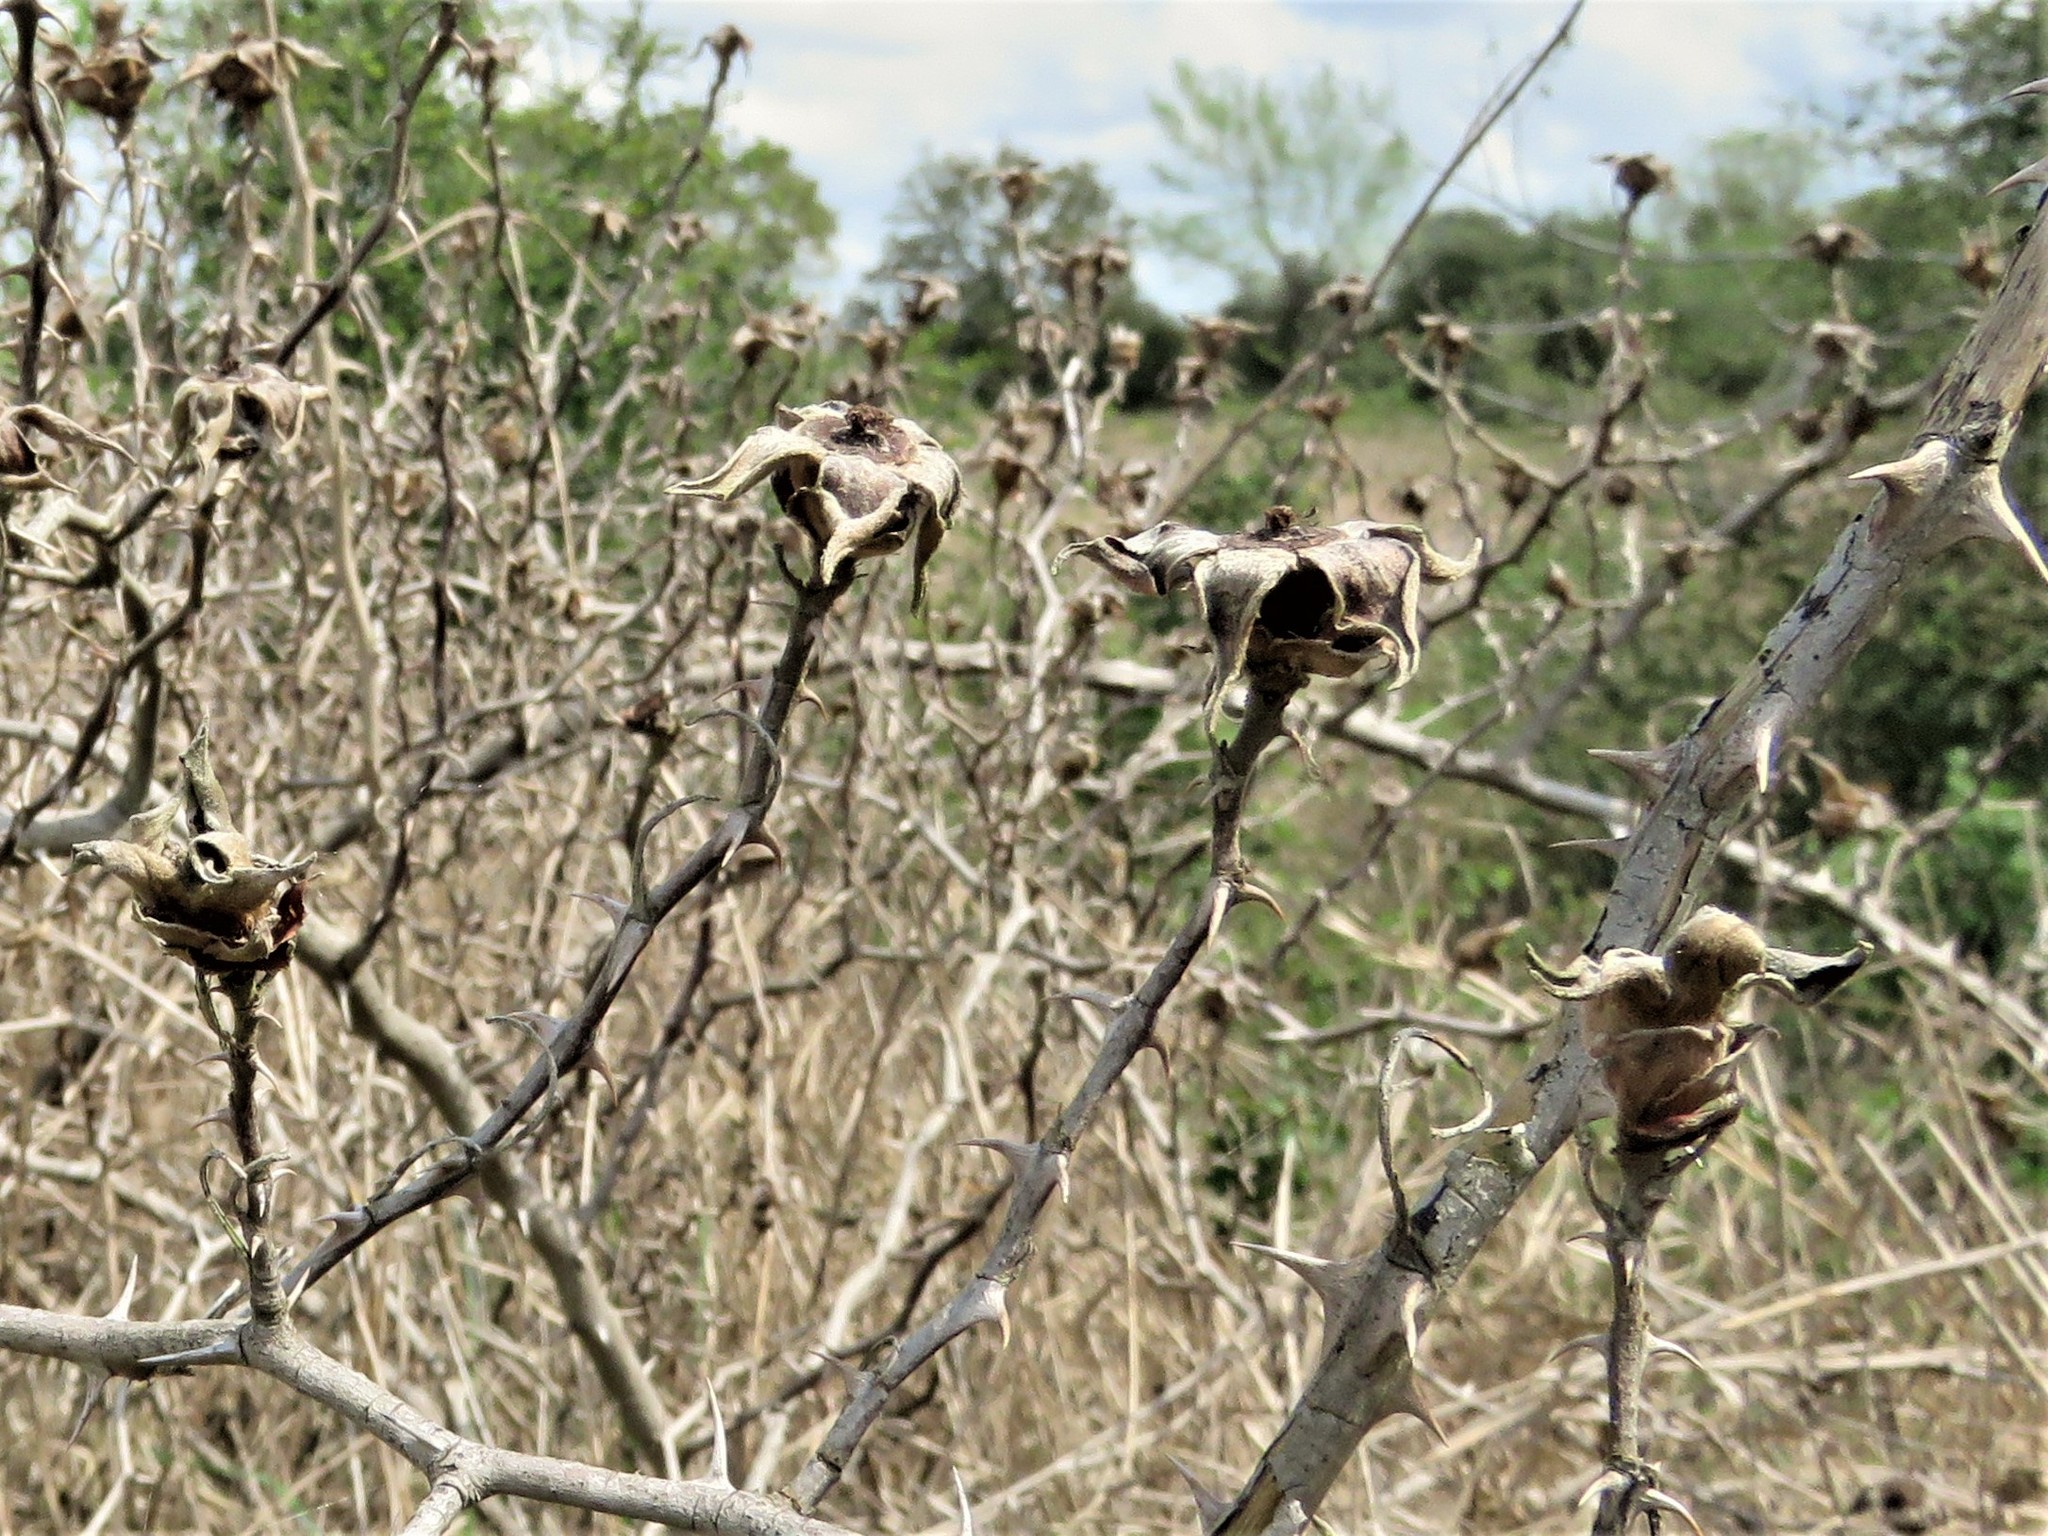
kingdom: Plantae
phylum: Tracheophyta
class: Magnoliopsida
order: Rosales
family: Rosaceae
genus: Rosa
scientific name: Rosa bracteata
